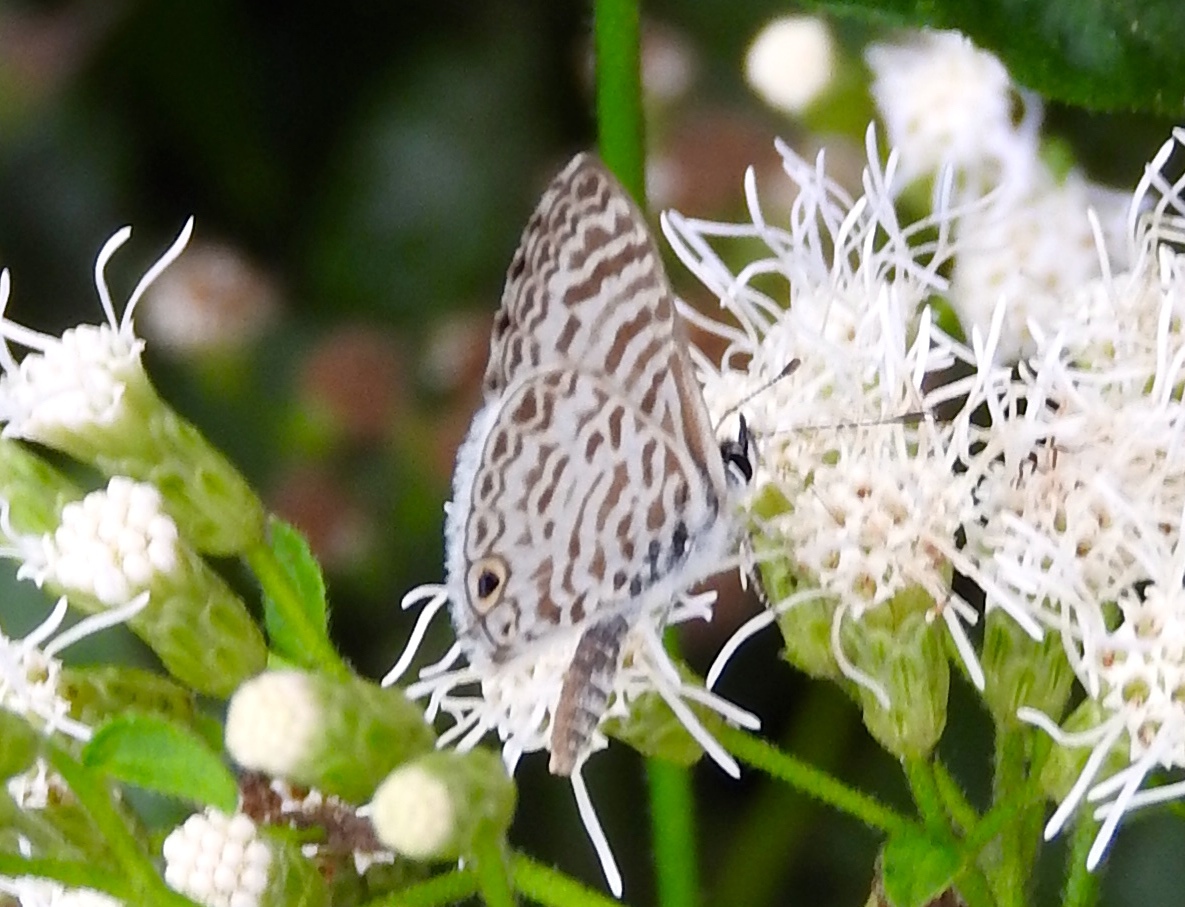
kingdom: Animalia
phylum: Arthropoda
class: Insecta
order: Lepidoptera
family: Lycaenidae
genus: Leptotes
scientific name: Leptotes cassius
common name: Cassius blue
